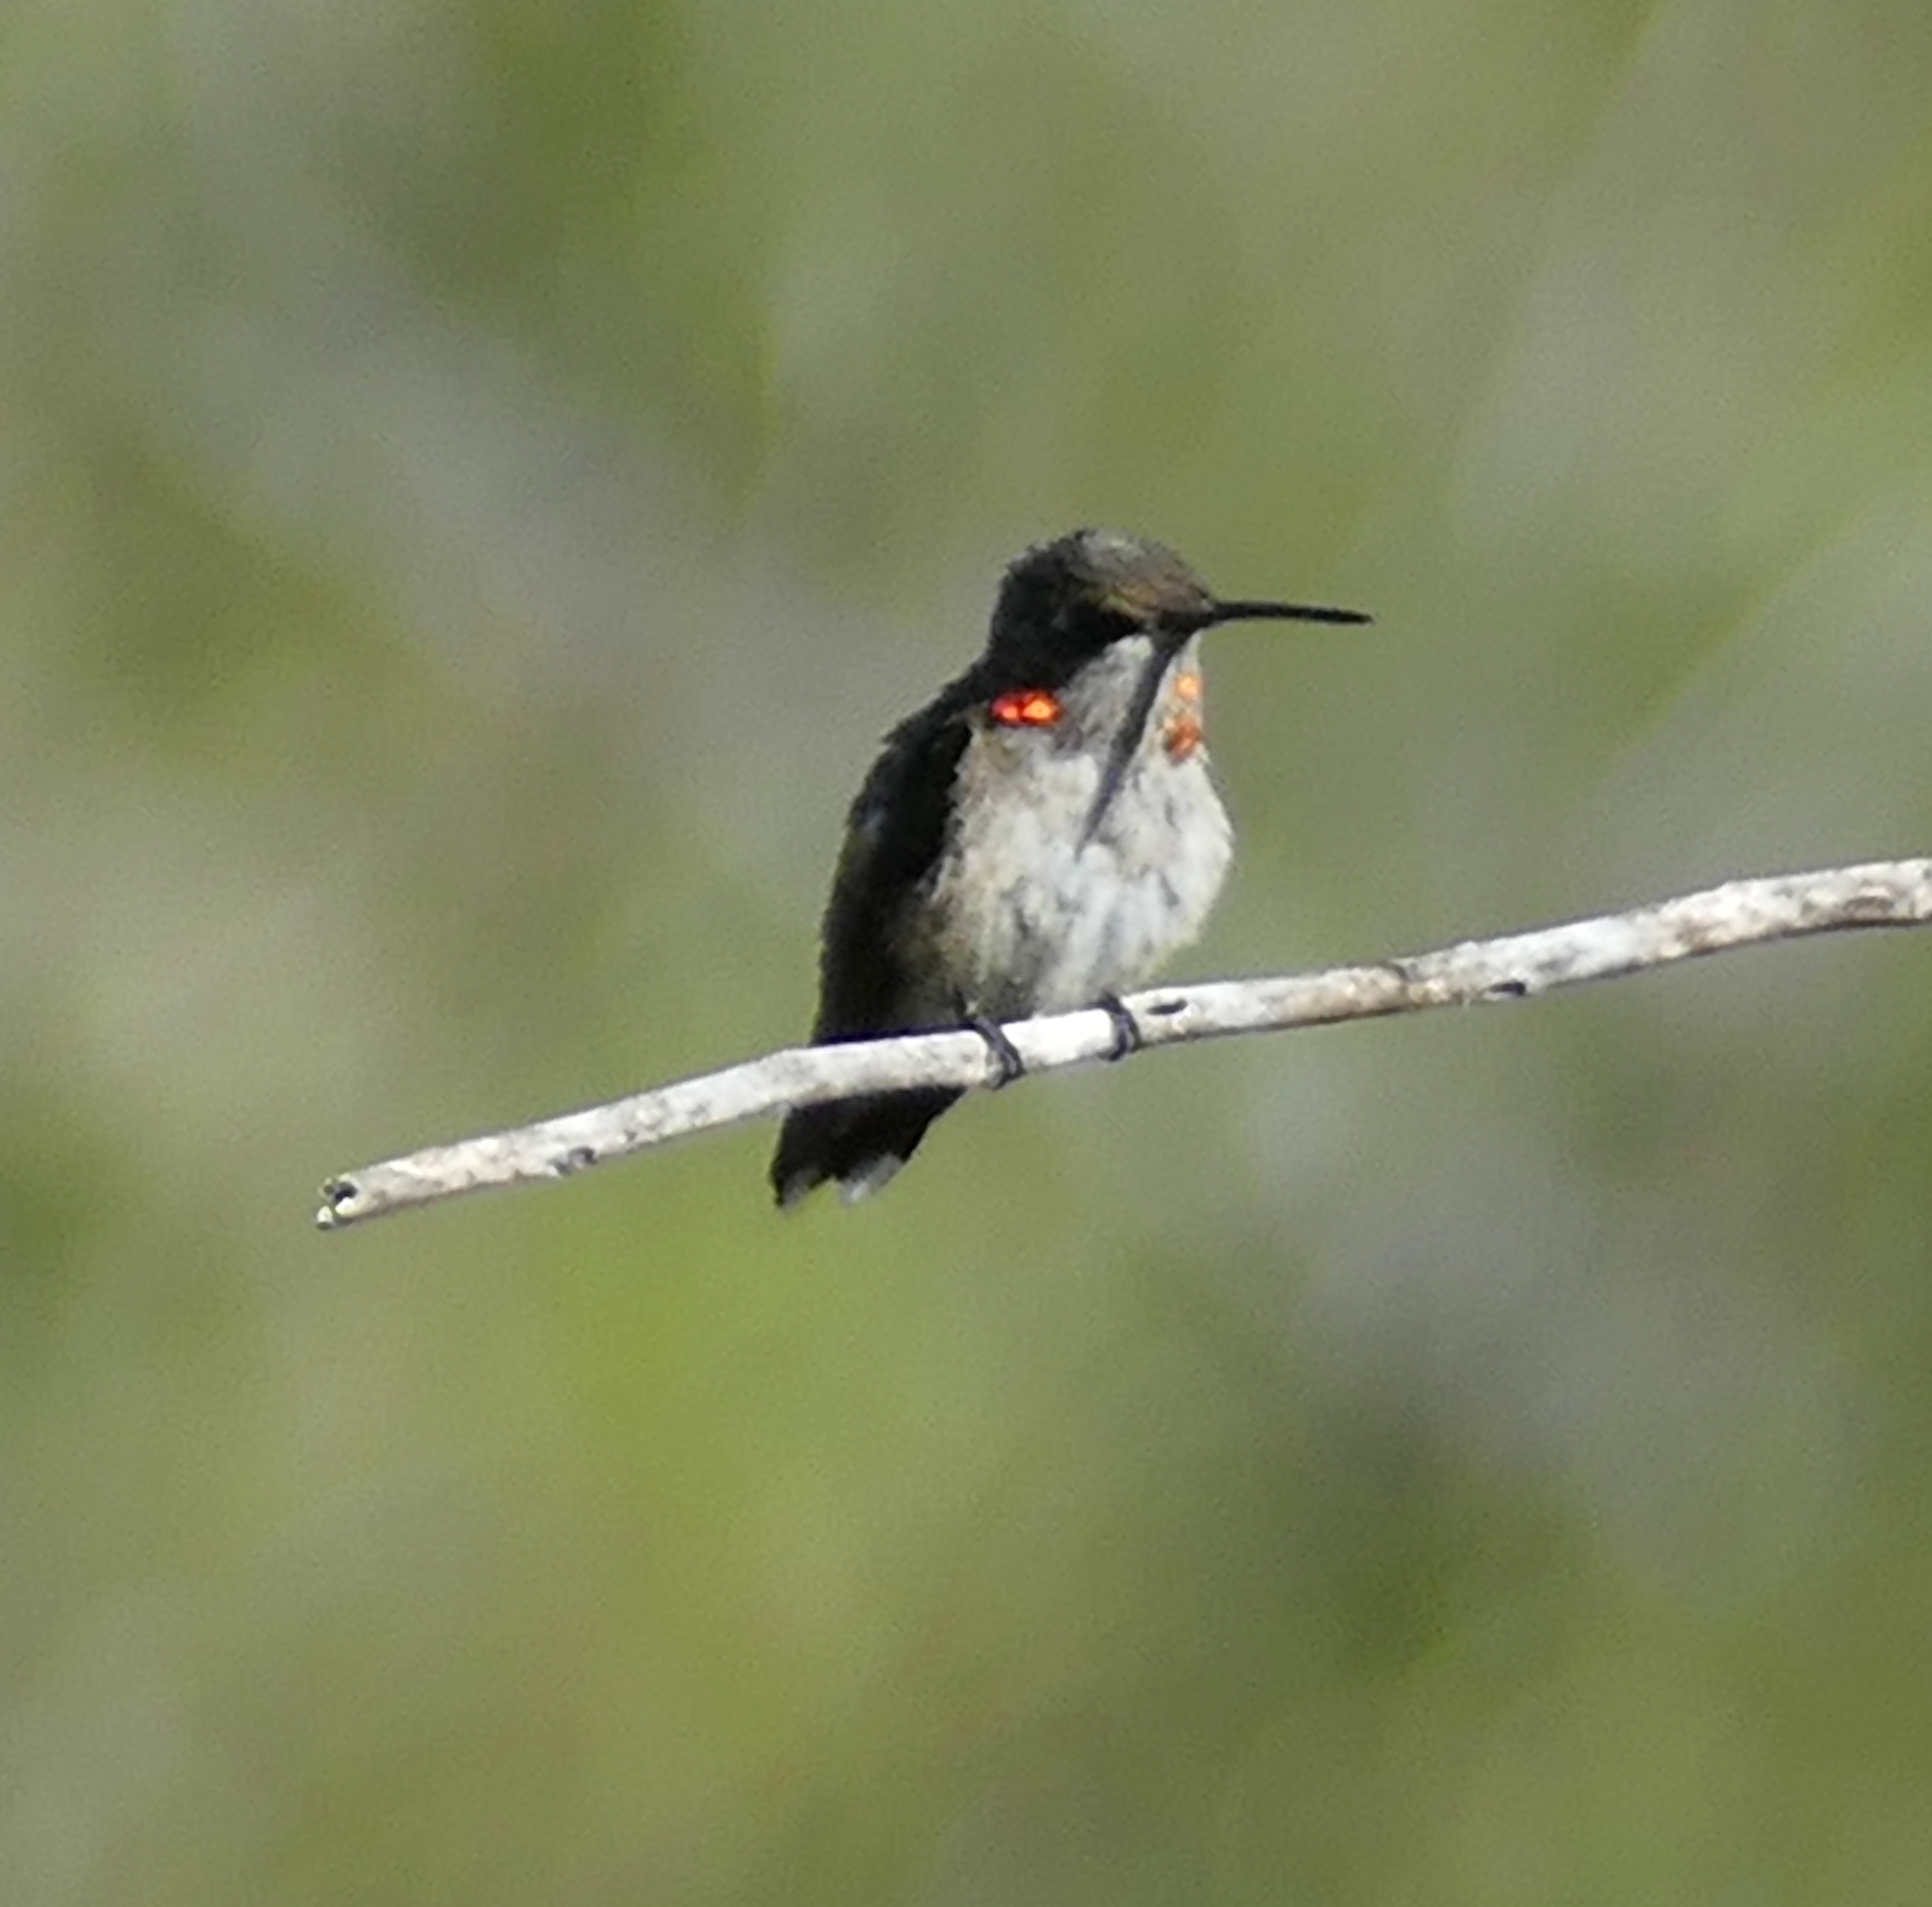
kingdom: Animalia
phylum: Chordata
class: Aves
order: Apodiformes
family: Trochilidae
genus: Archilochus
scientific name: Archilochus colubris
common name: Ruby-throated hummingbird
